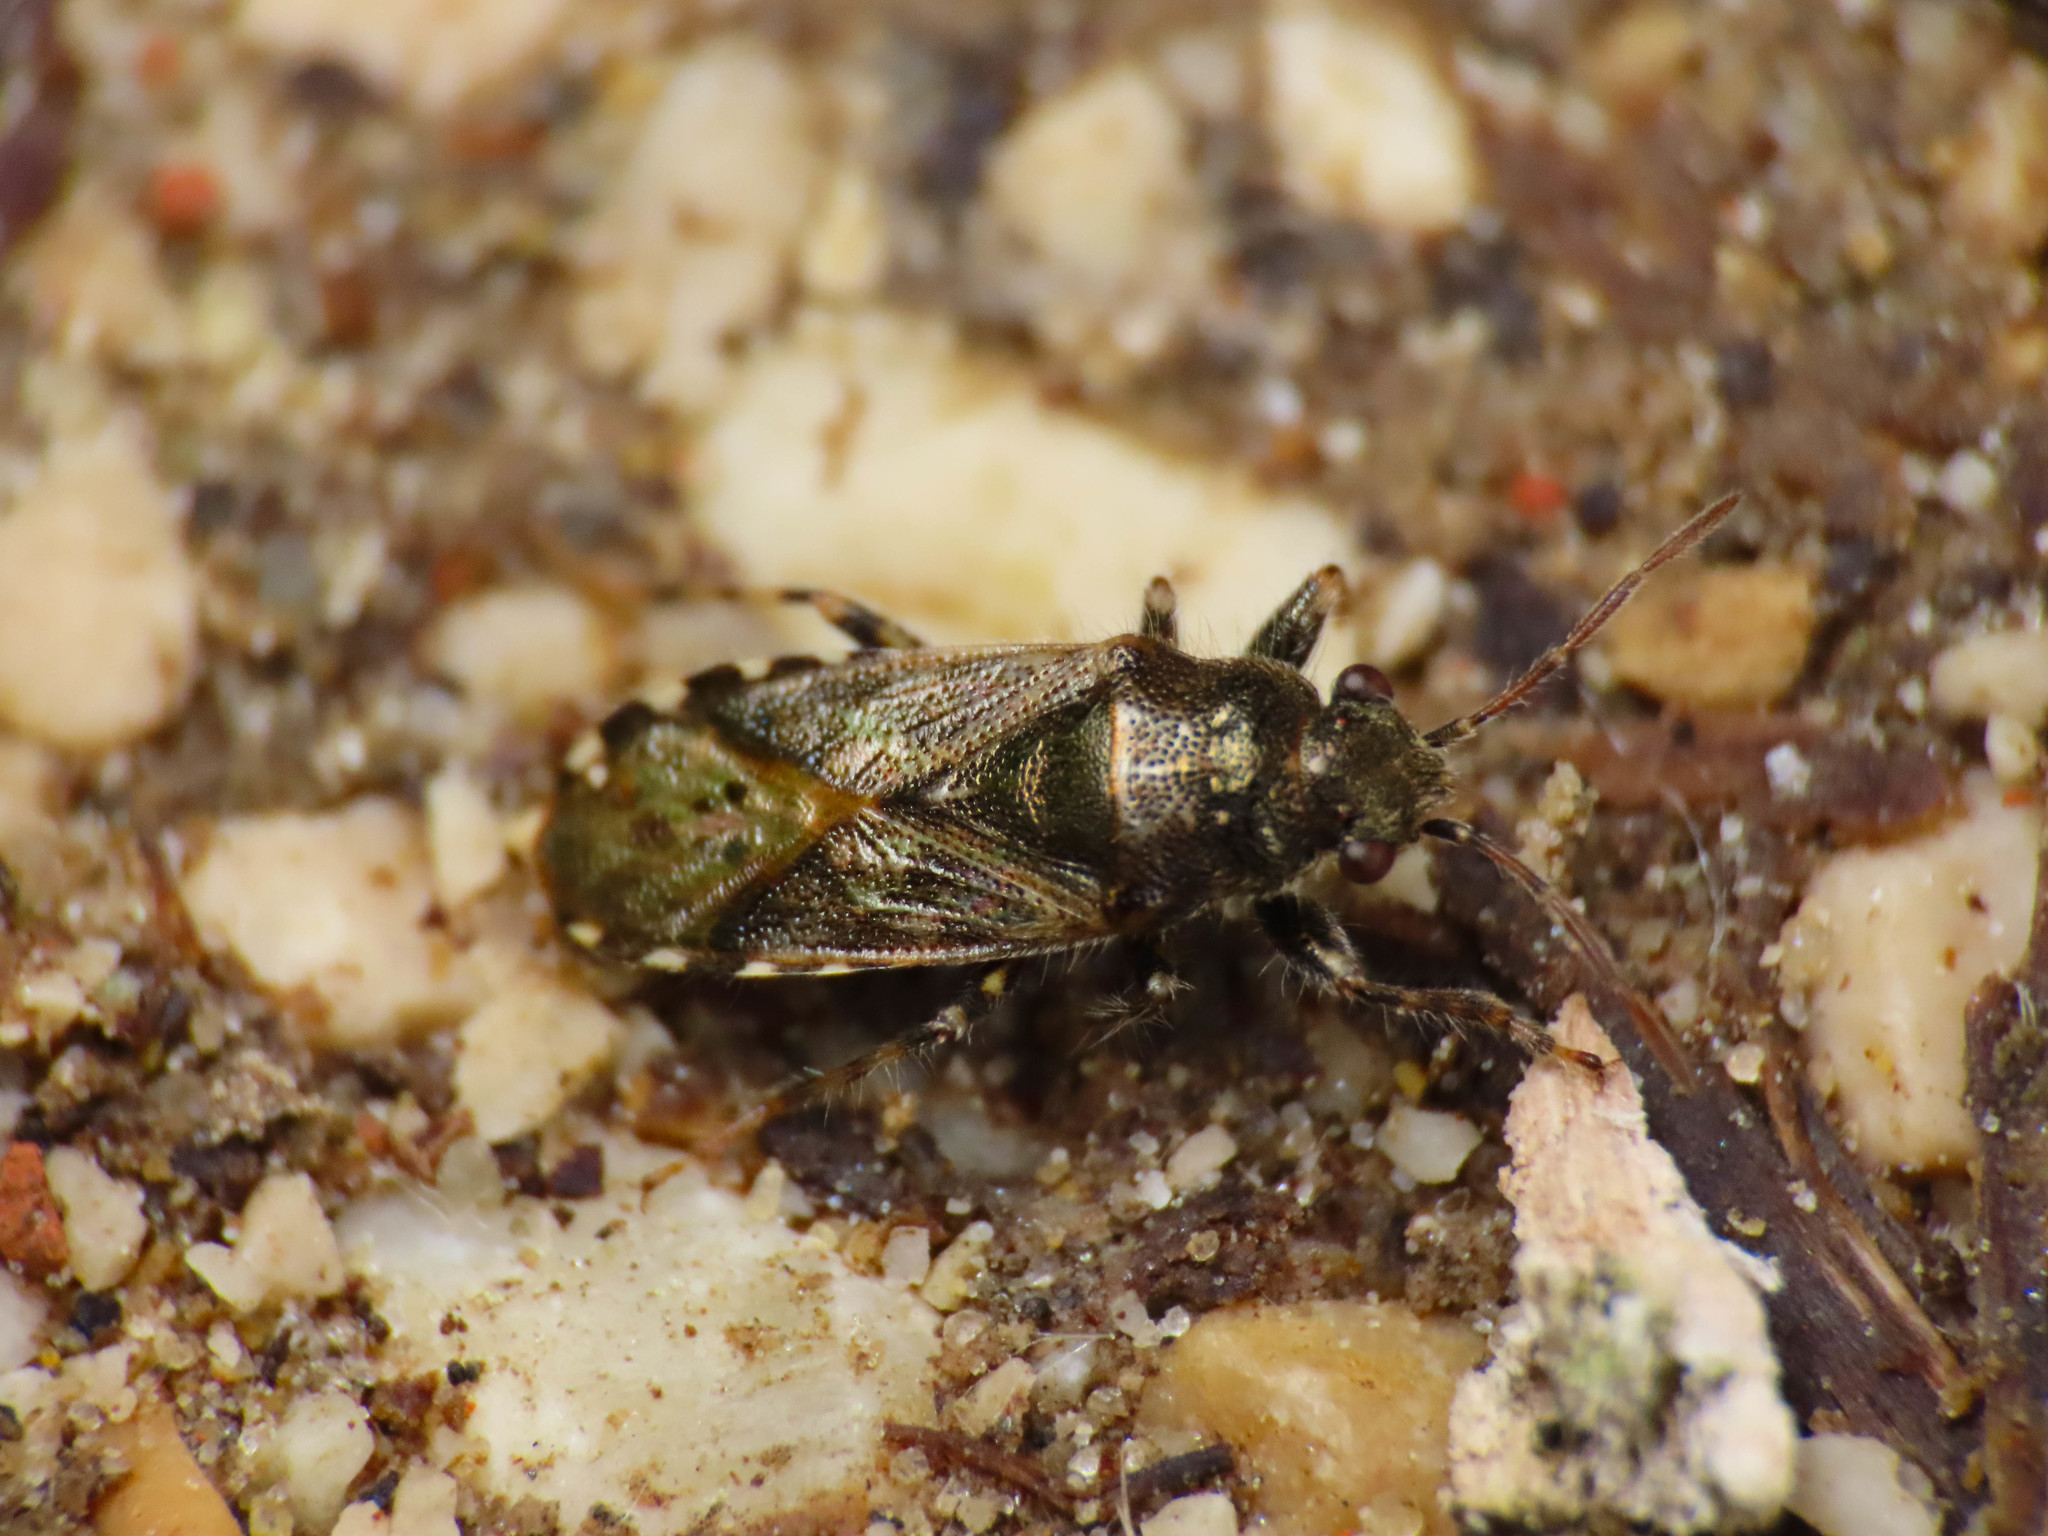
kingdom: Animalia
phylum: Arthropoda
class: Insecta
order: Hemiptera
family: Heterogastridae
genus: Heterogaster
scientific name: Heterogaster urticae
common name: Seed bug
